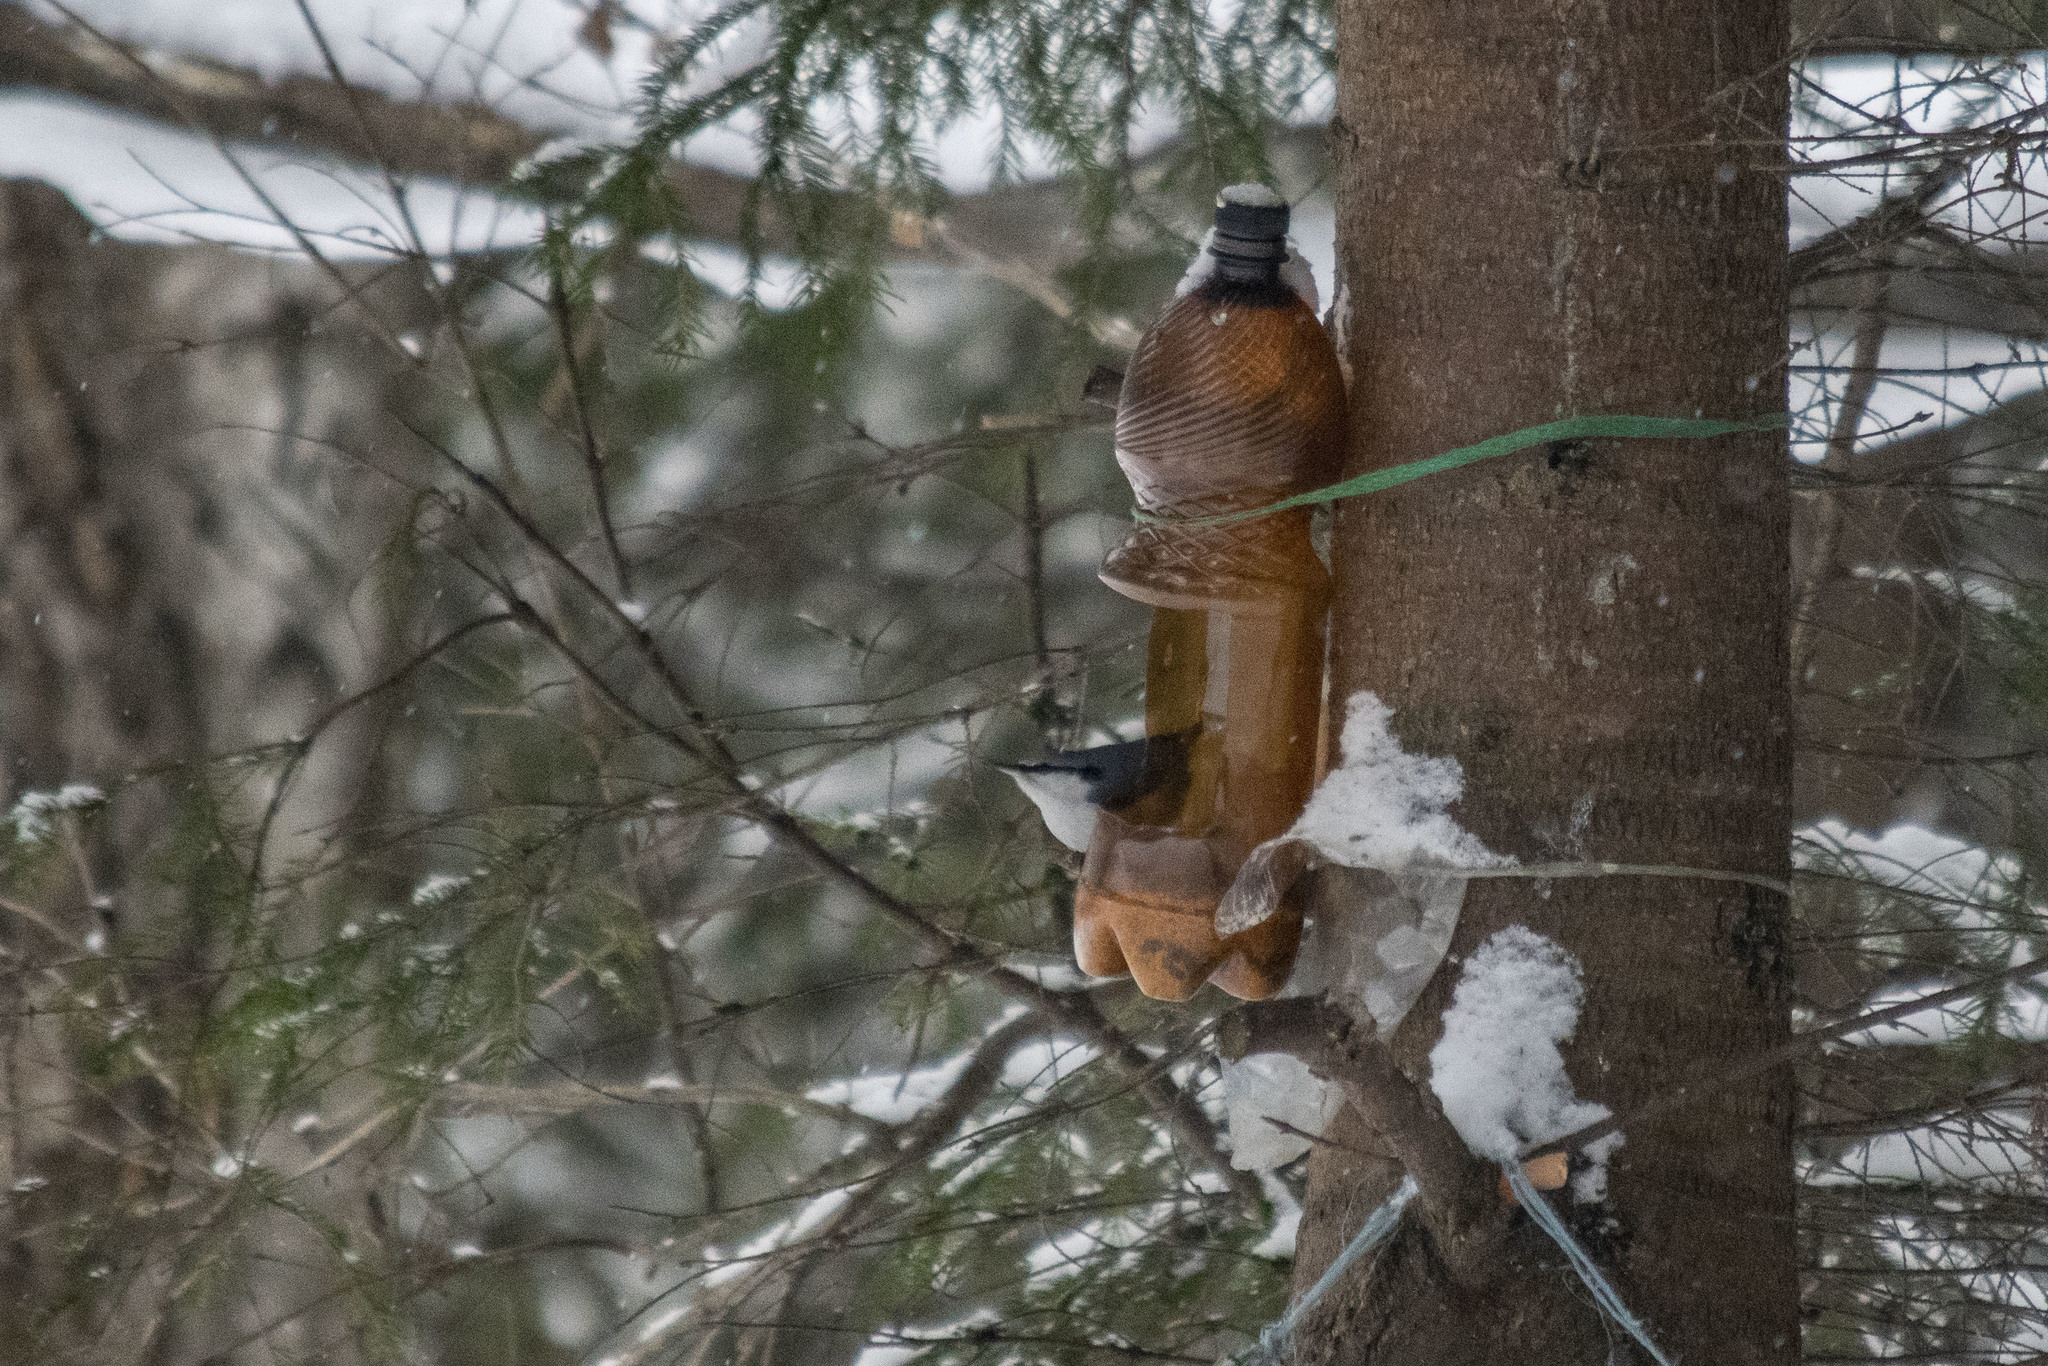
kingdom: Animalia
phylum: Chordata
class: Aves
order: Passeriformes
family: Sittidae
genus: Sitta
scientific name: Sitta europaea
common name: Eurasian nuthatch
